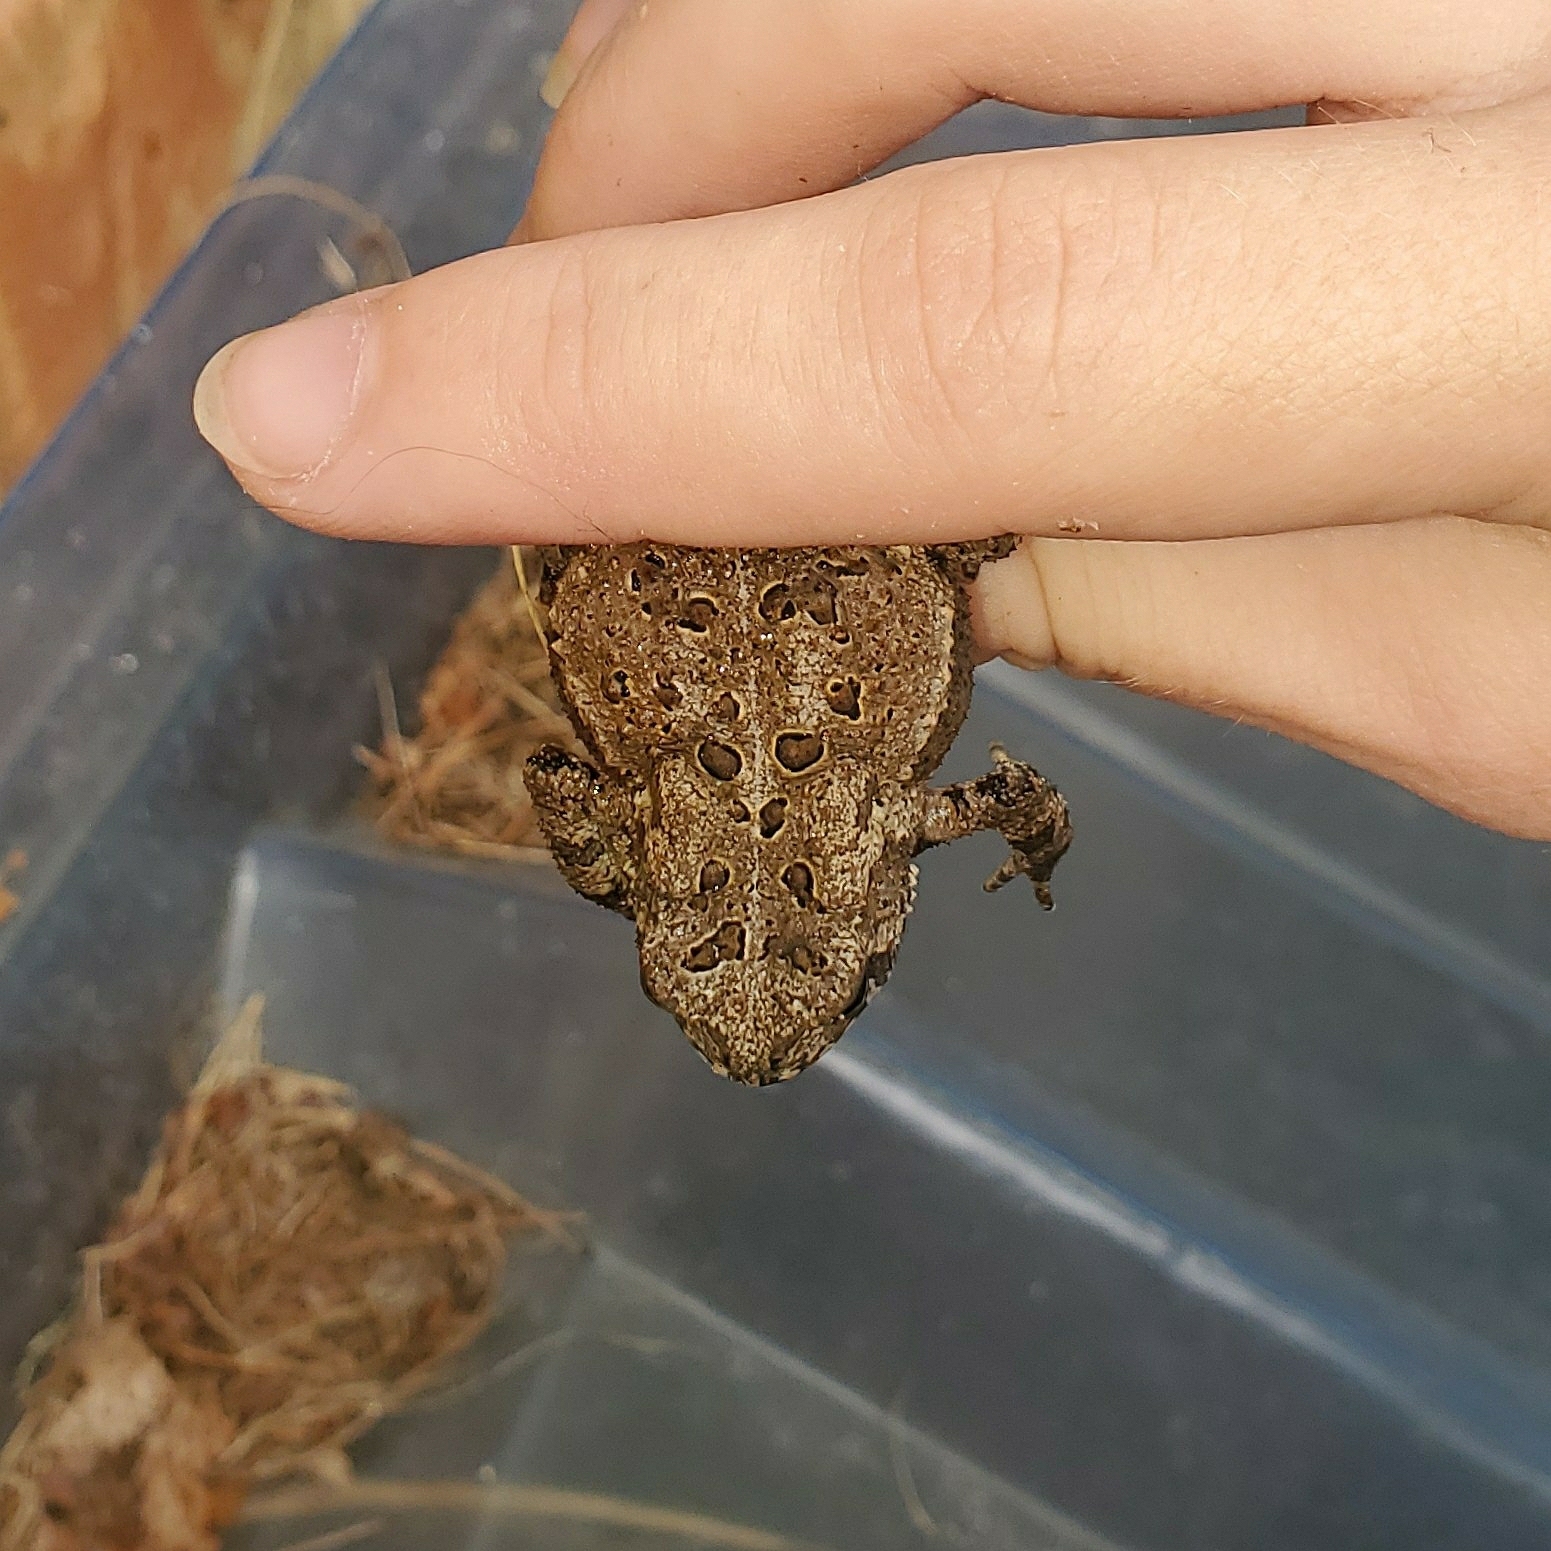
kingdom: Animalia
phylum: Chordata
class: Amphibia
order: Anura
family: Bufonidae
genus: Anaxyrus
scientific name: Anaxyrus americanus
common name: American toad
